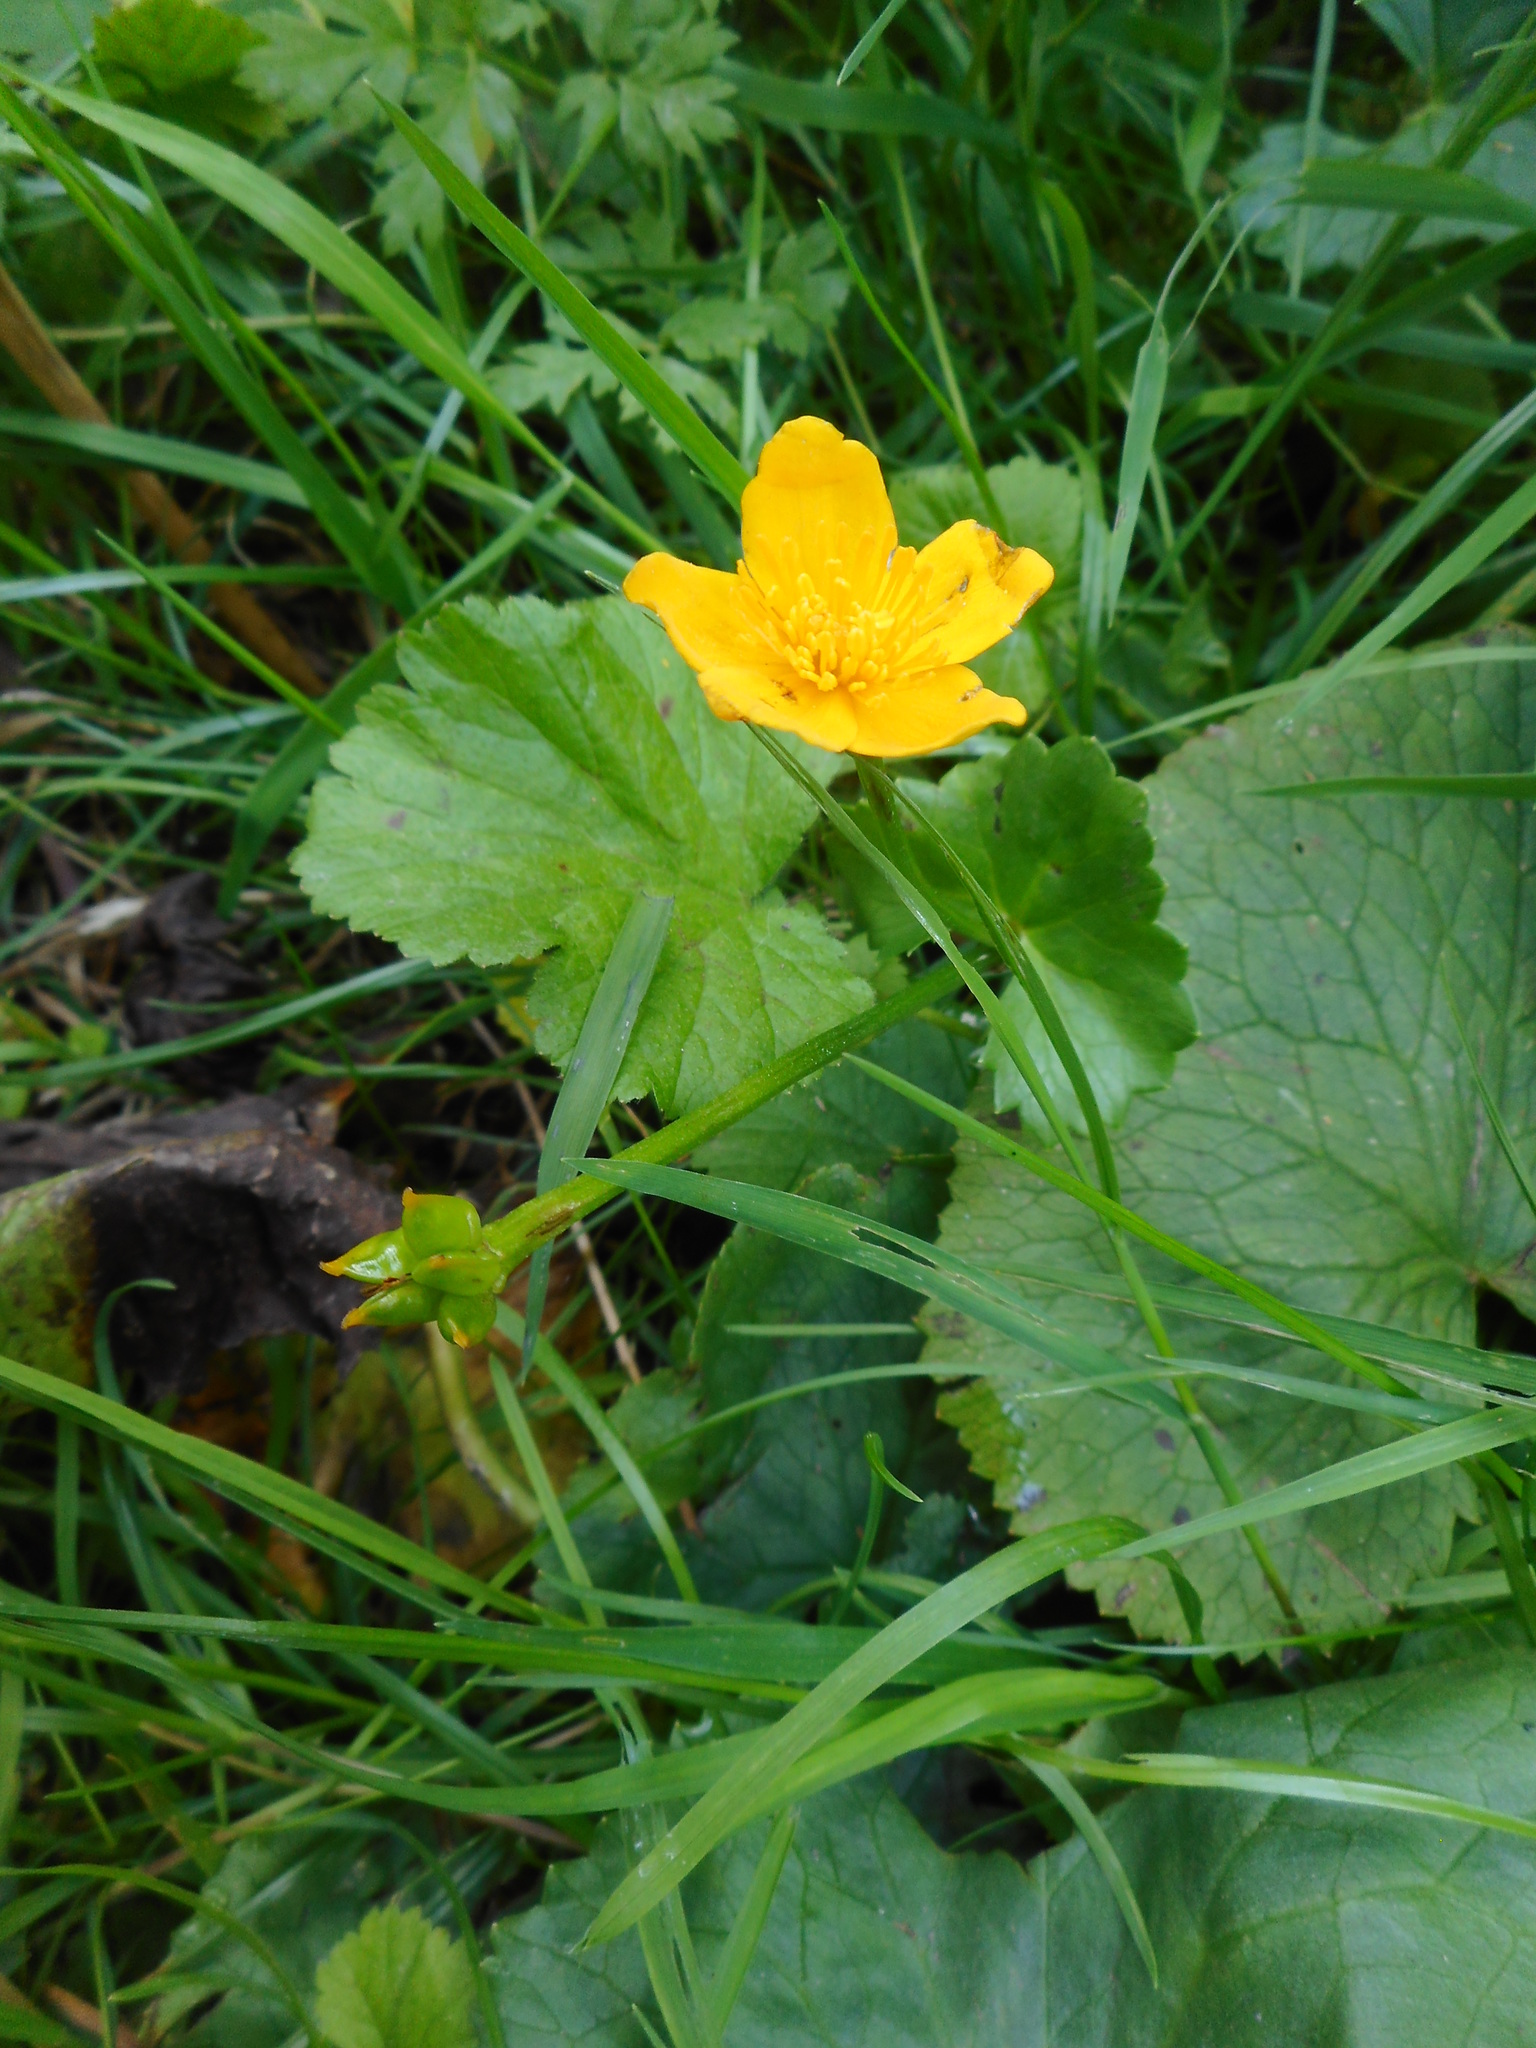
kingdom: Plantae
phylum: Tracheophyta
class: Magnoliopsida
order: Ranunculales
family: Ranunculaceae
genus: Caltha
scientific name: Caltha palustris
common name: Marsh marigold
